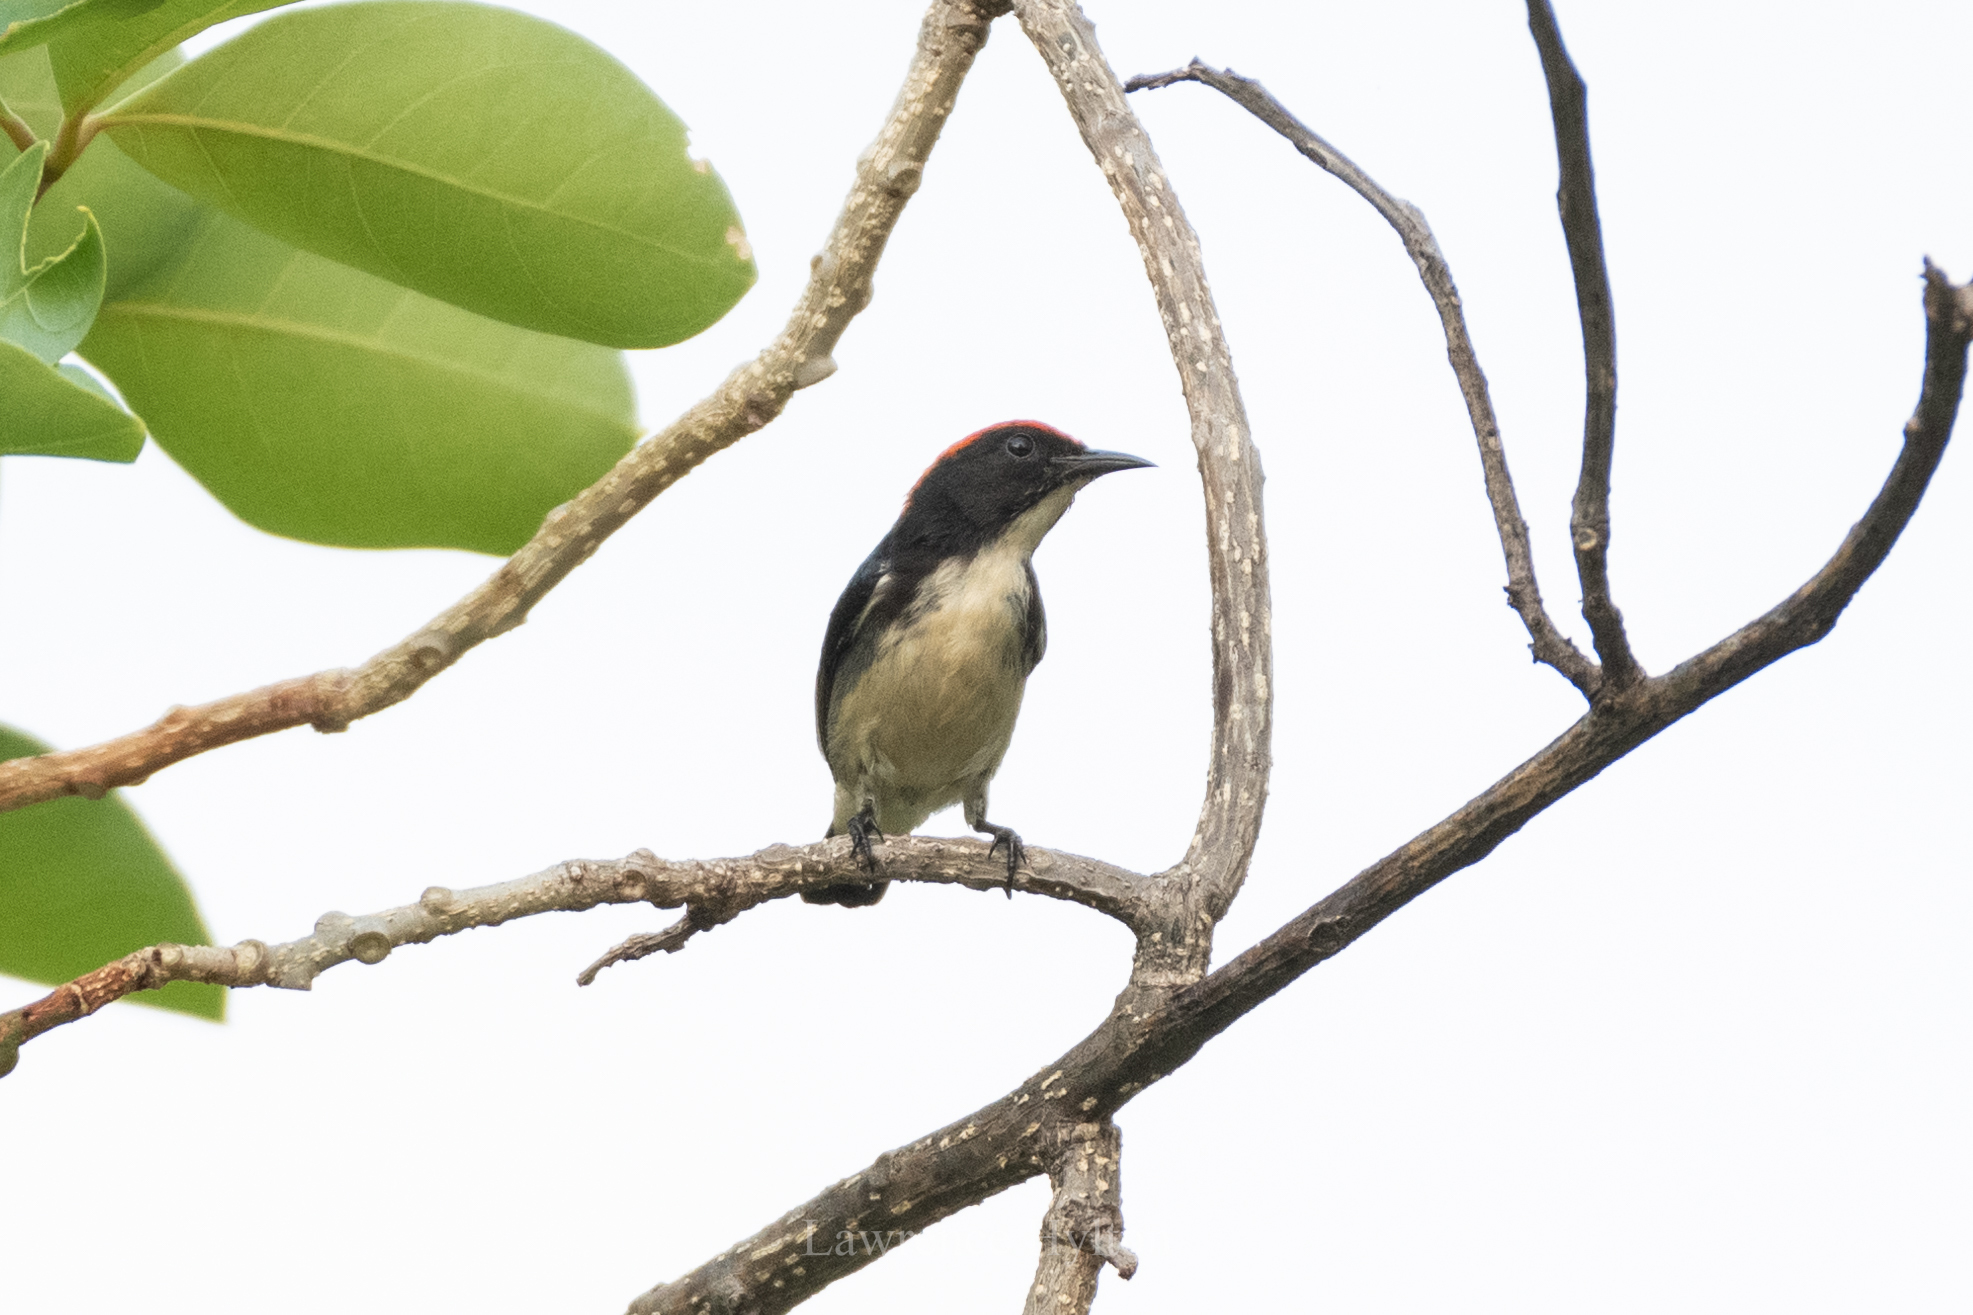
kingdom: Animalia
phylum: Chordata
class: Aves
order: Passeriformes
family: Dicaeidae
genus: Dicaeum
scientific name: Dicaeum cruentatum
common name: Scarlet-backed flowerpecker
